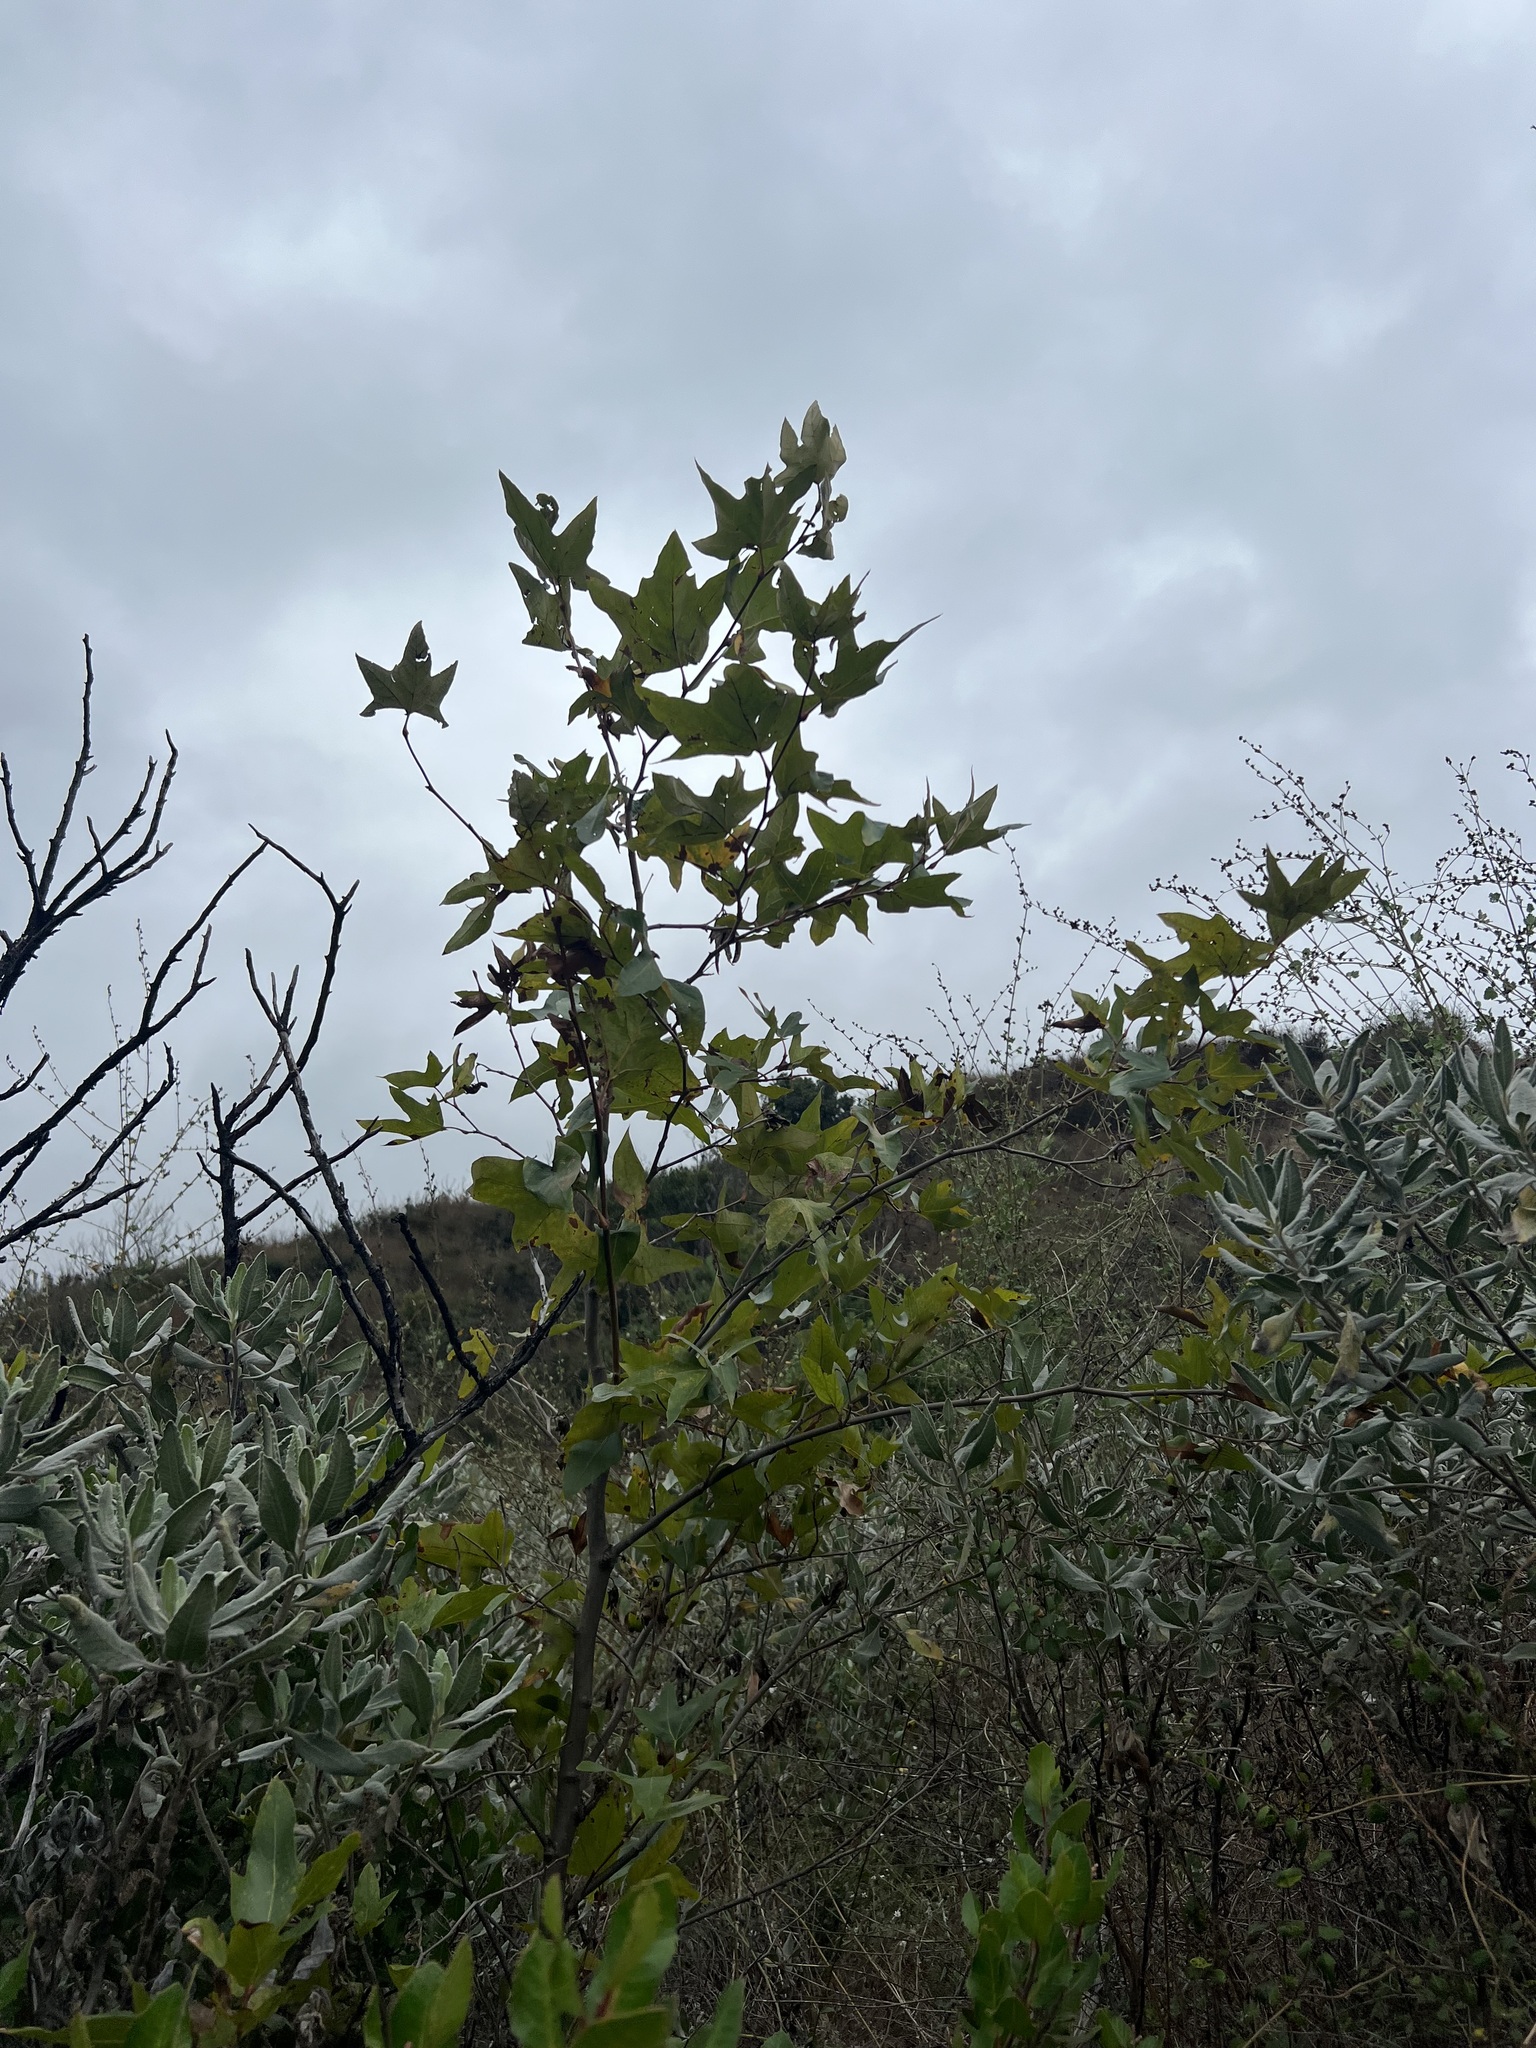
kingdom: Plantae
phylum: Tracheophyta
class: Magnoliopsida
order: Proteales
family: Platanaceae
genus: Platanus
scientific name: Platanus racemosa
